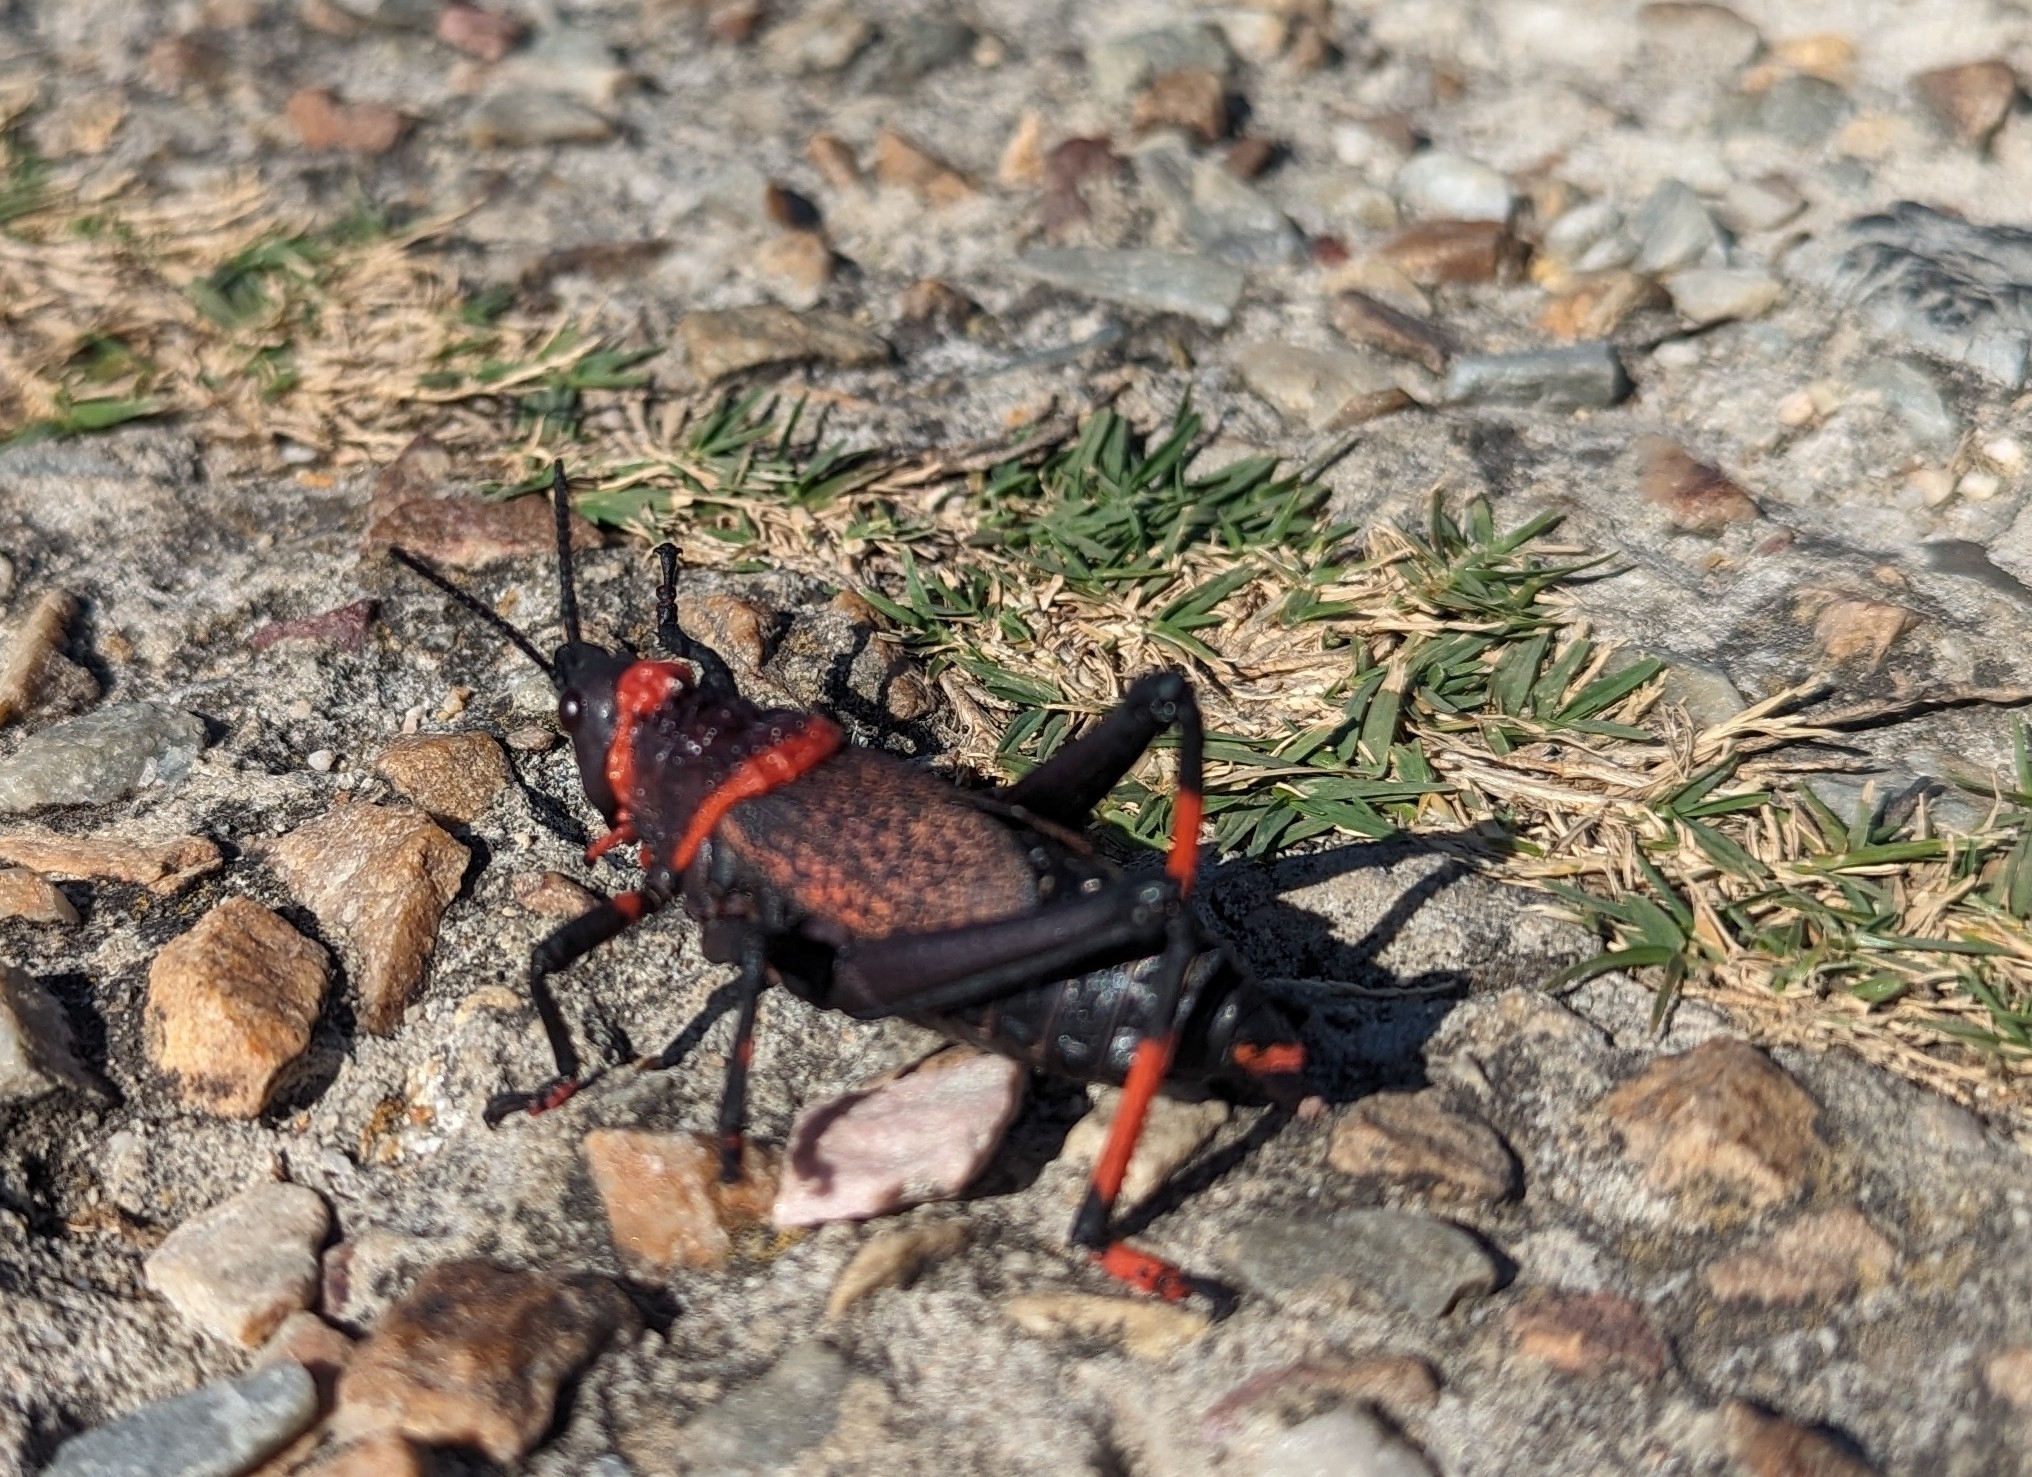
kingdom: Animalia
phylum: Arthropoda
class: Insecta
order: Orthoptera
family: Pyrgomorphidae
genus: Dictyophorus
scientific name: Dictyophorus spumans
